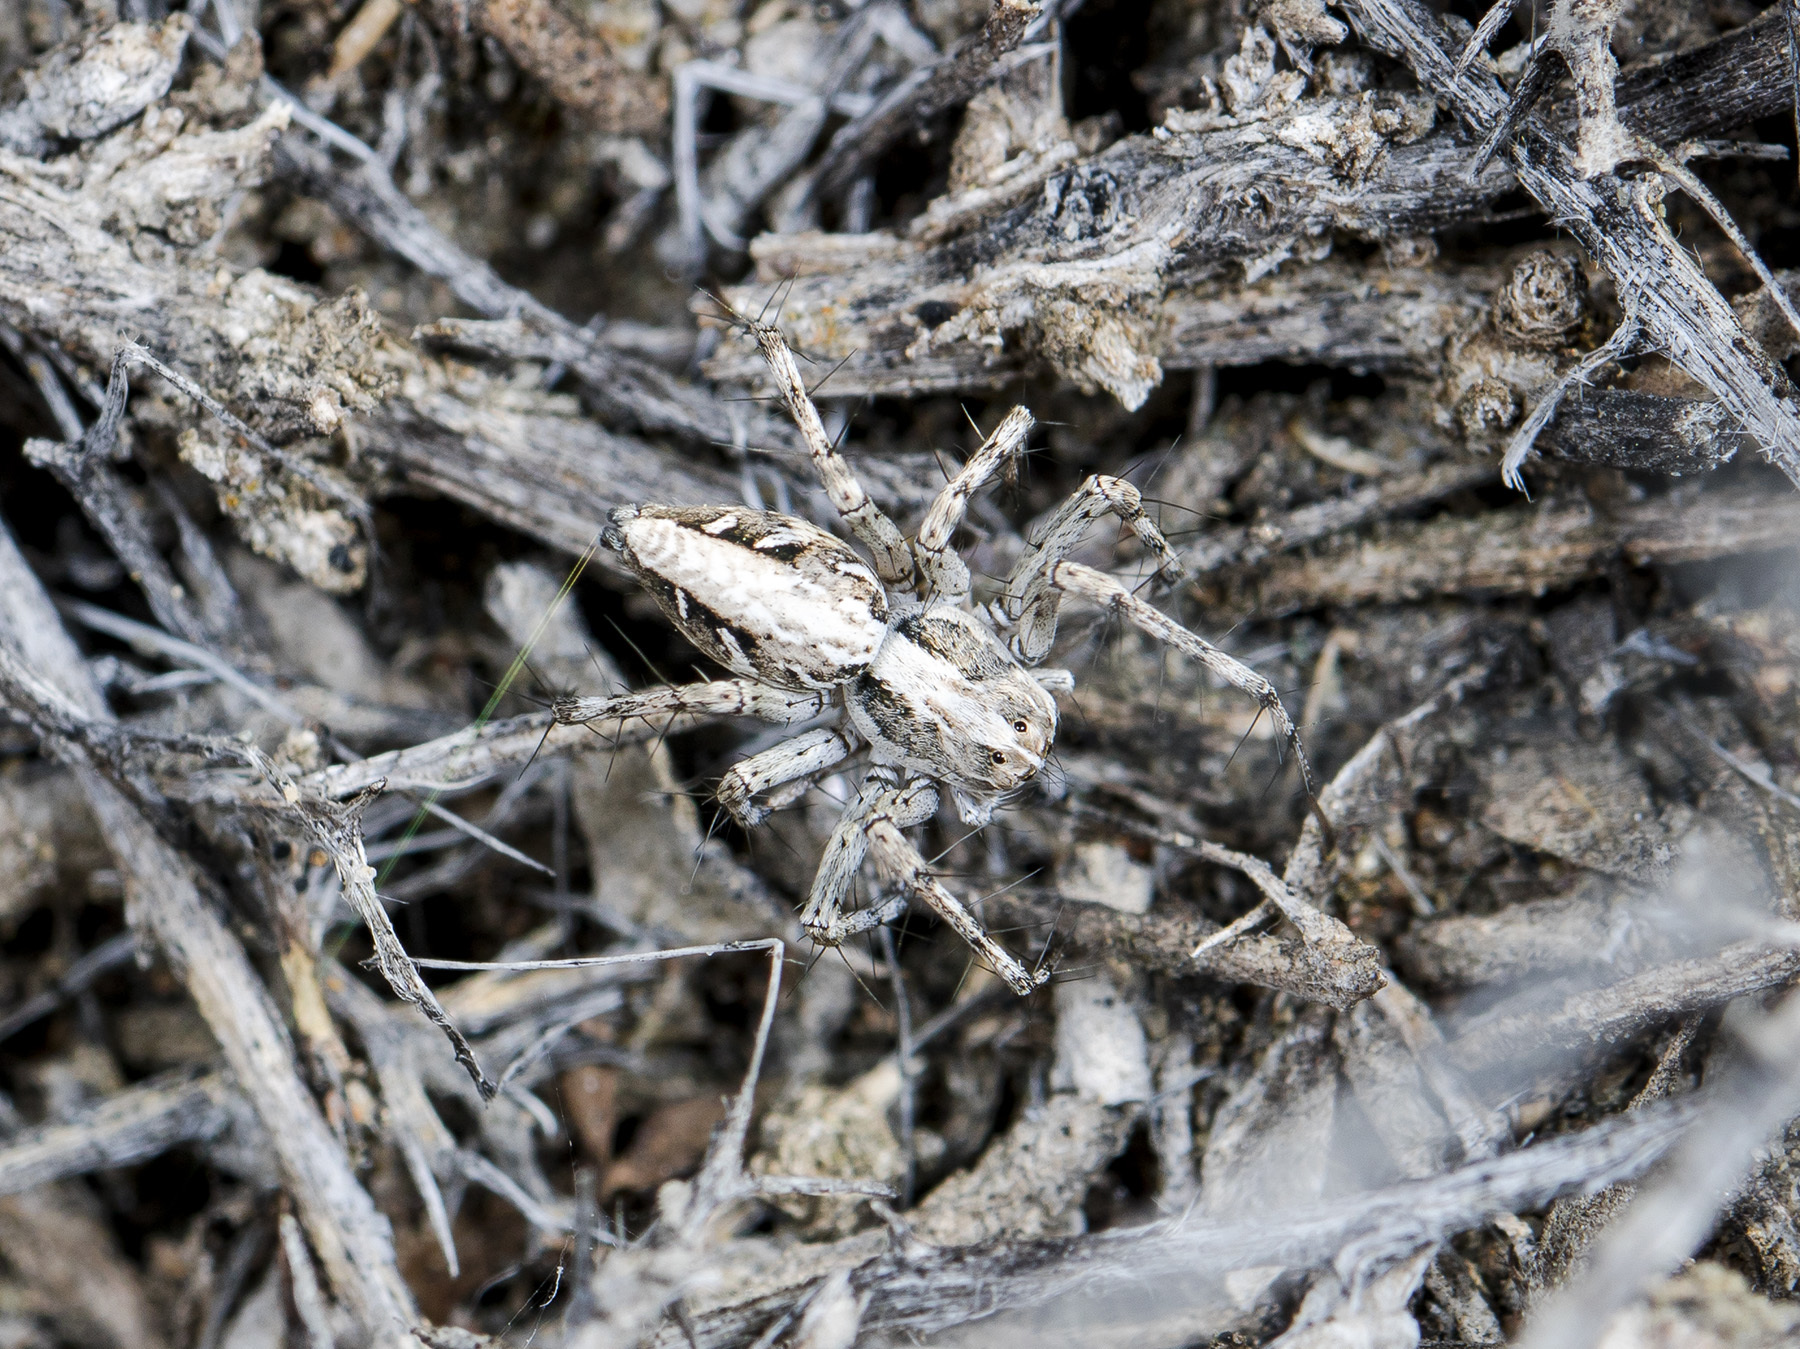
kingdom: Animalia
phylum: Arthropoda
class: Arachnida
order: Araneae
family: Oxyopidae
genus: Oxyopes
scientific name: Oxyopes globifer
